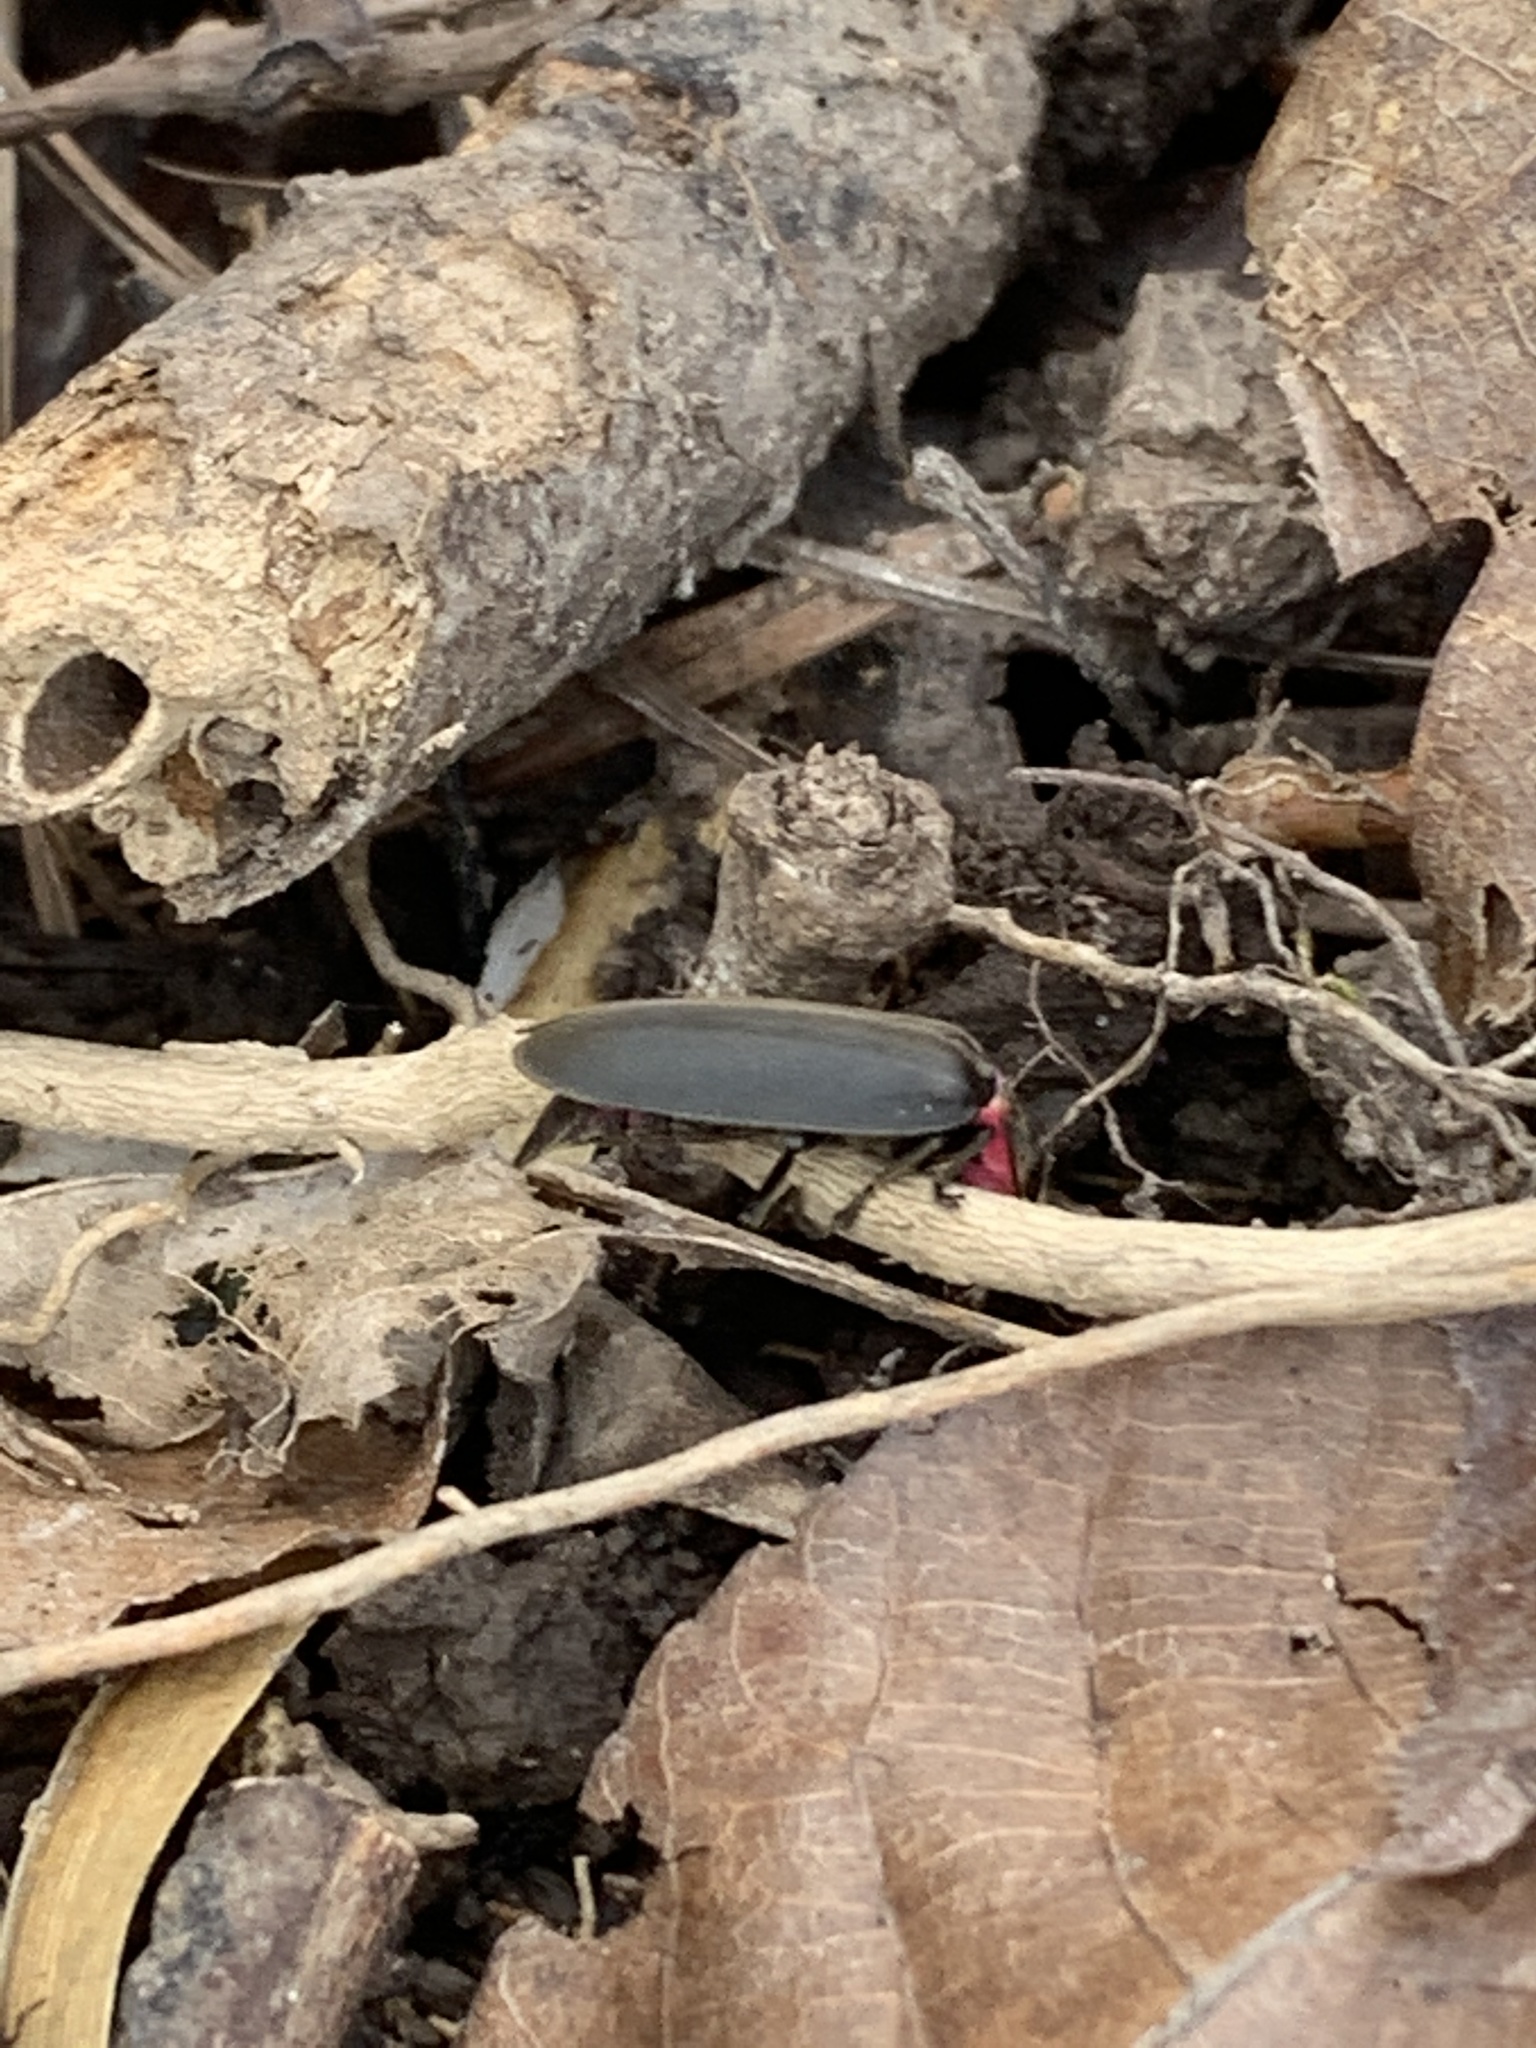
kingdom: Animalia
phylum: Arthropoda
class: Insecta
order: Coleoptera
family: Lampyridae
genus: Photinus
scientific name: Photinus corrusca
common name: Winter firefly
